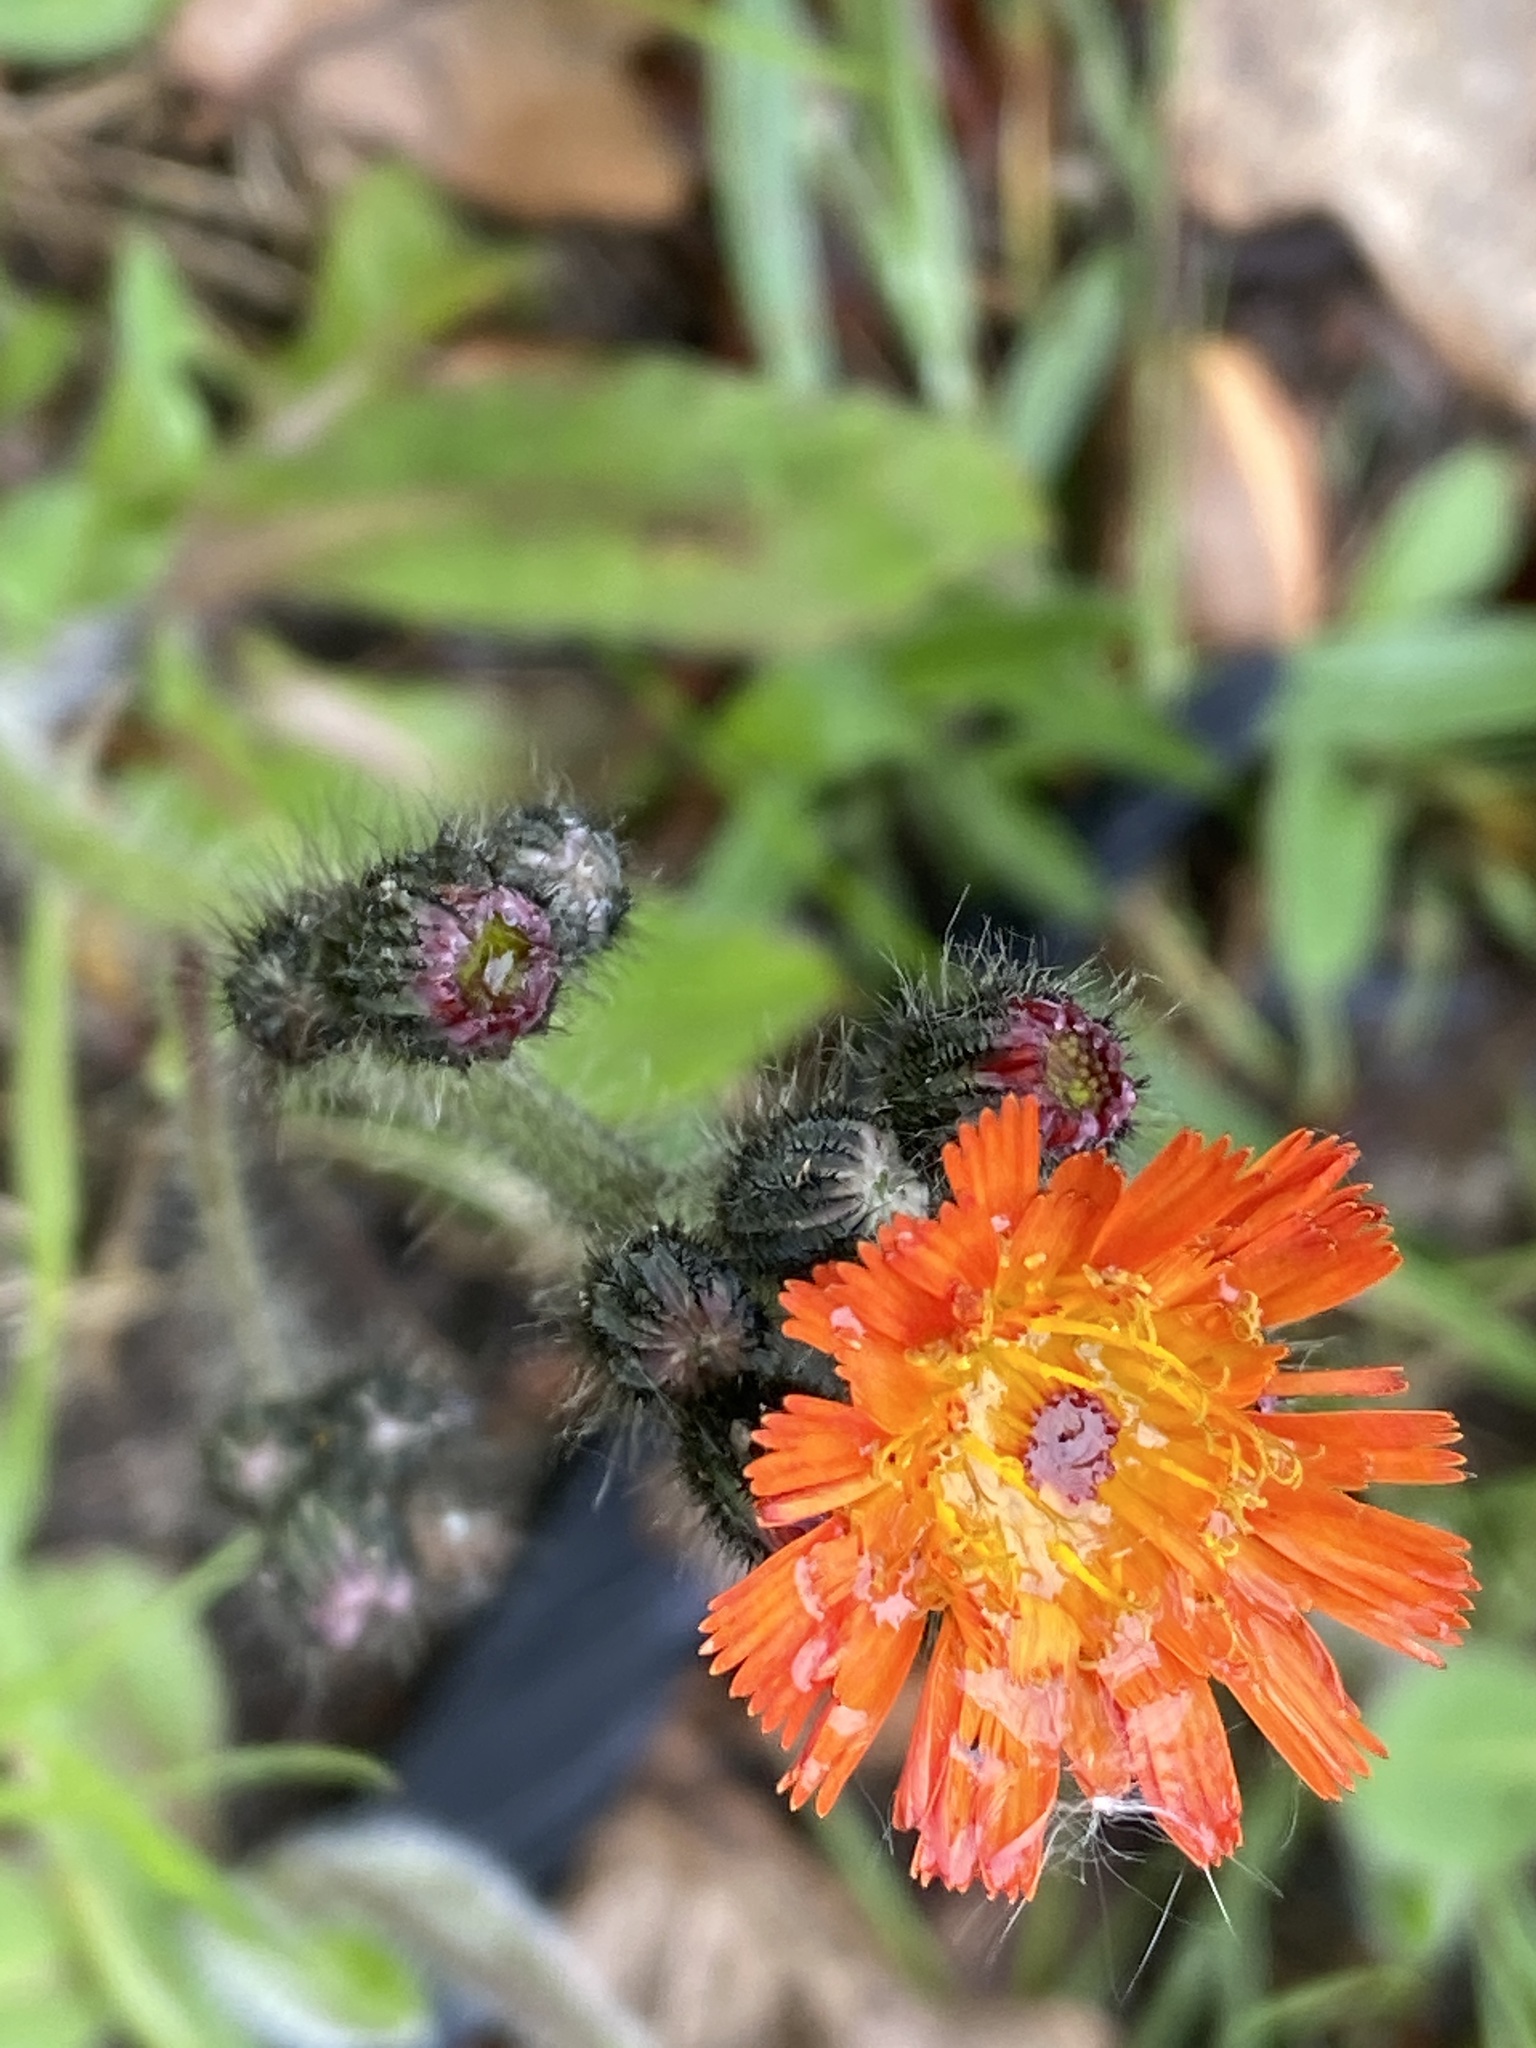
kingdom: Plantae
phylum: Tracheophyta
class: Magnoliopsida
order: Asterales
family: Asteraceae
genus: Pilosella
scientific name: Pilosella aurantiaca
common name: Fox-and-cubs
